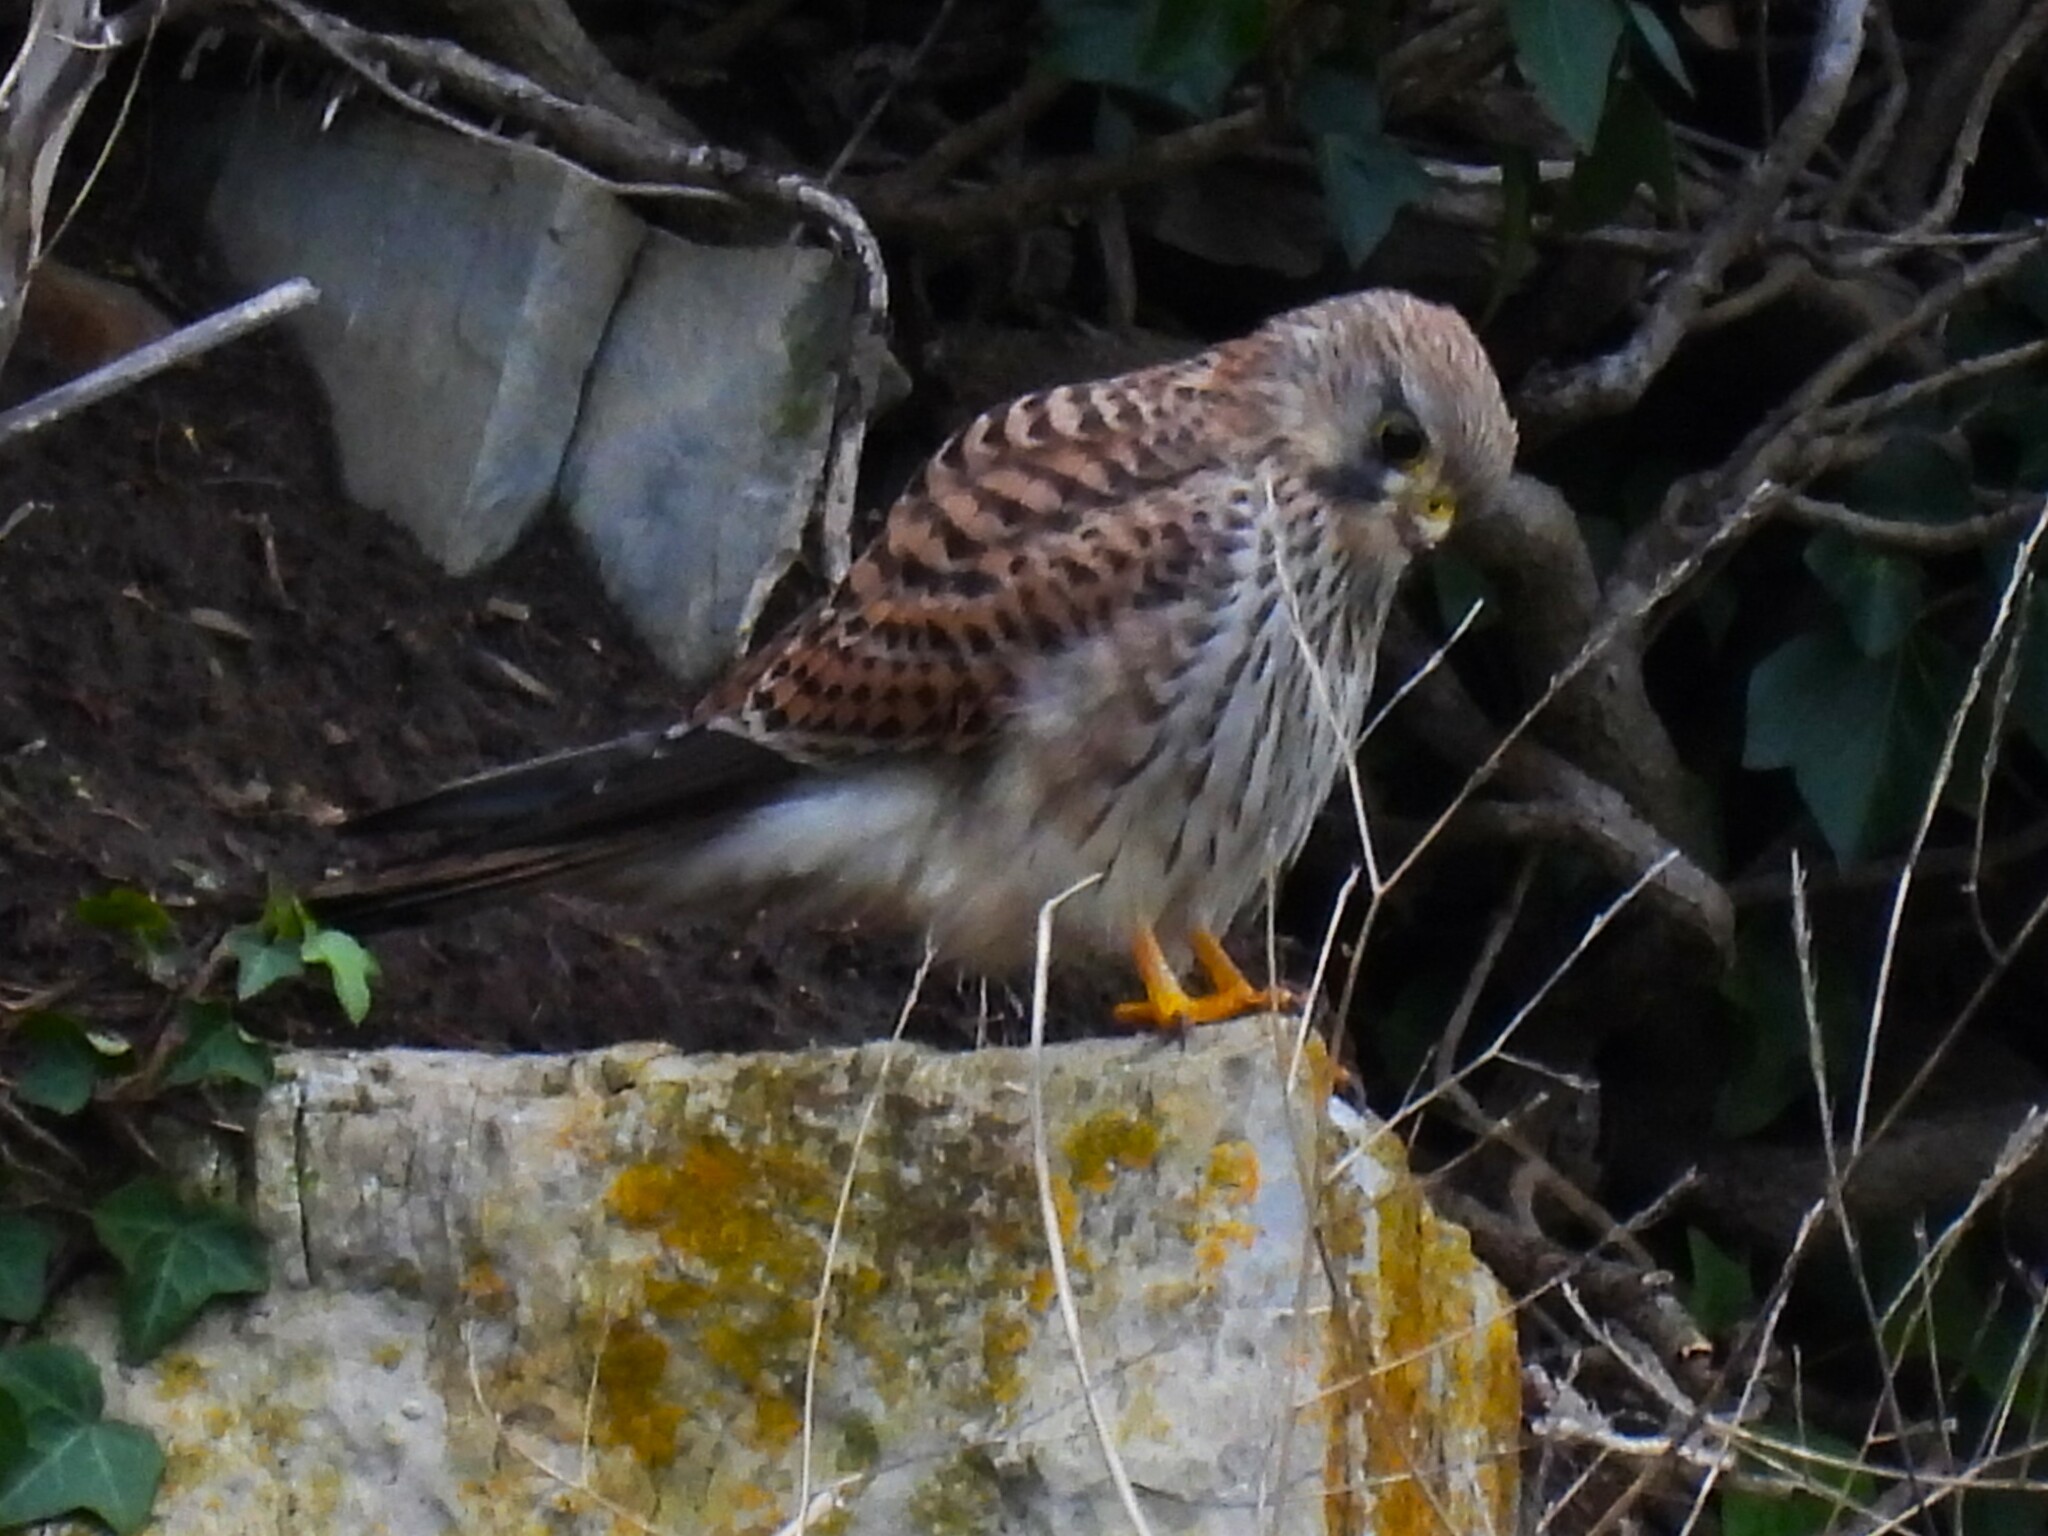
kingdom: Animalia
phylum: Chordata
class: Aves
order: Falconiformes
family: Falconidae
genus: Falco
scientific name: Falco tinnunculus
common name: Common kestrel
